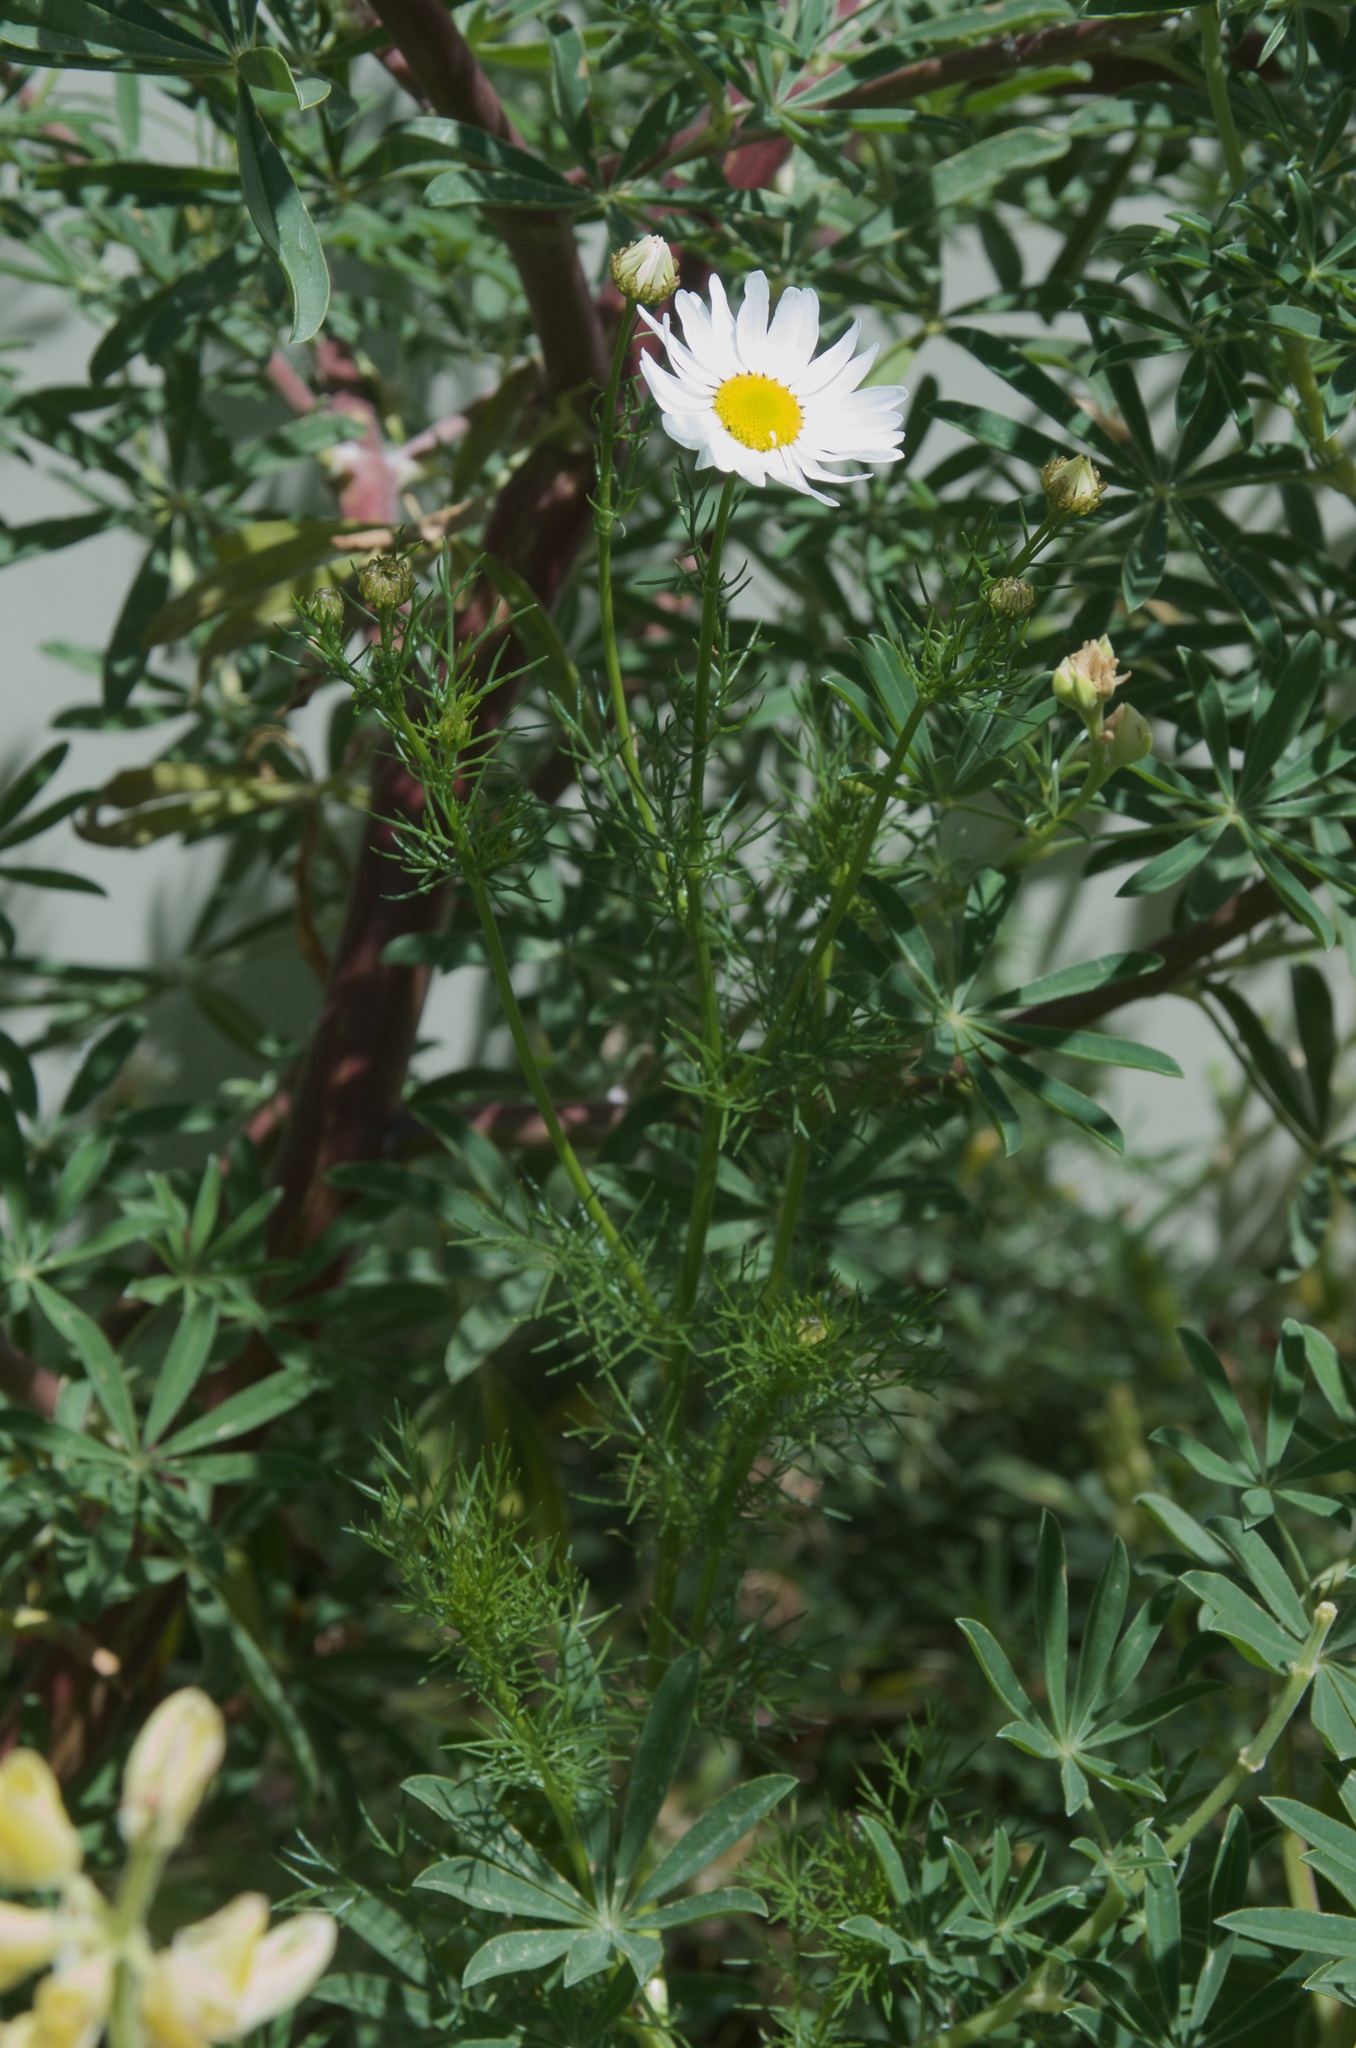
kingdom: Plantae
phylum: Tracheophyta
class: Magnoliopsida
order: Asterales
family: Asteraceae
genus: Tripleurospermum
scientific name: Tripleurospermum inodorum
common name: Scentless mayweed
